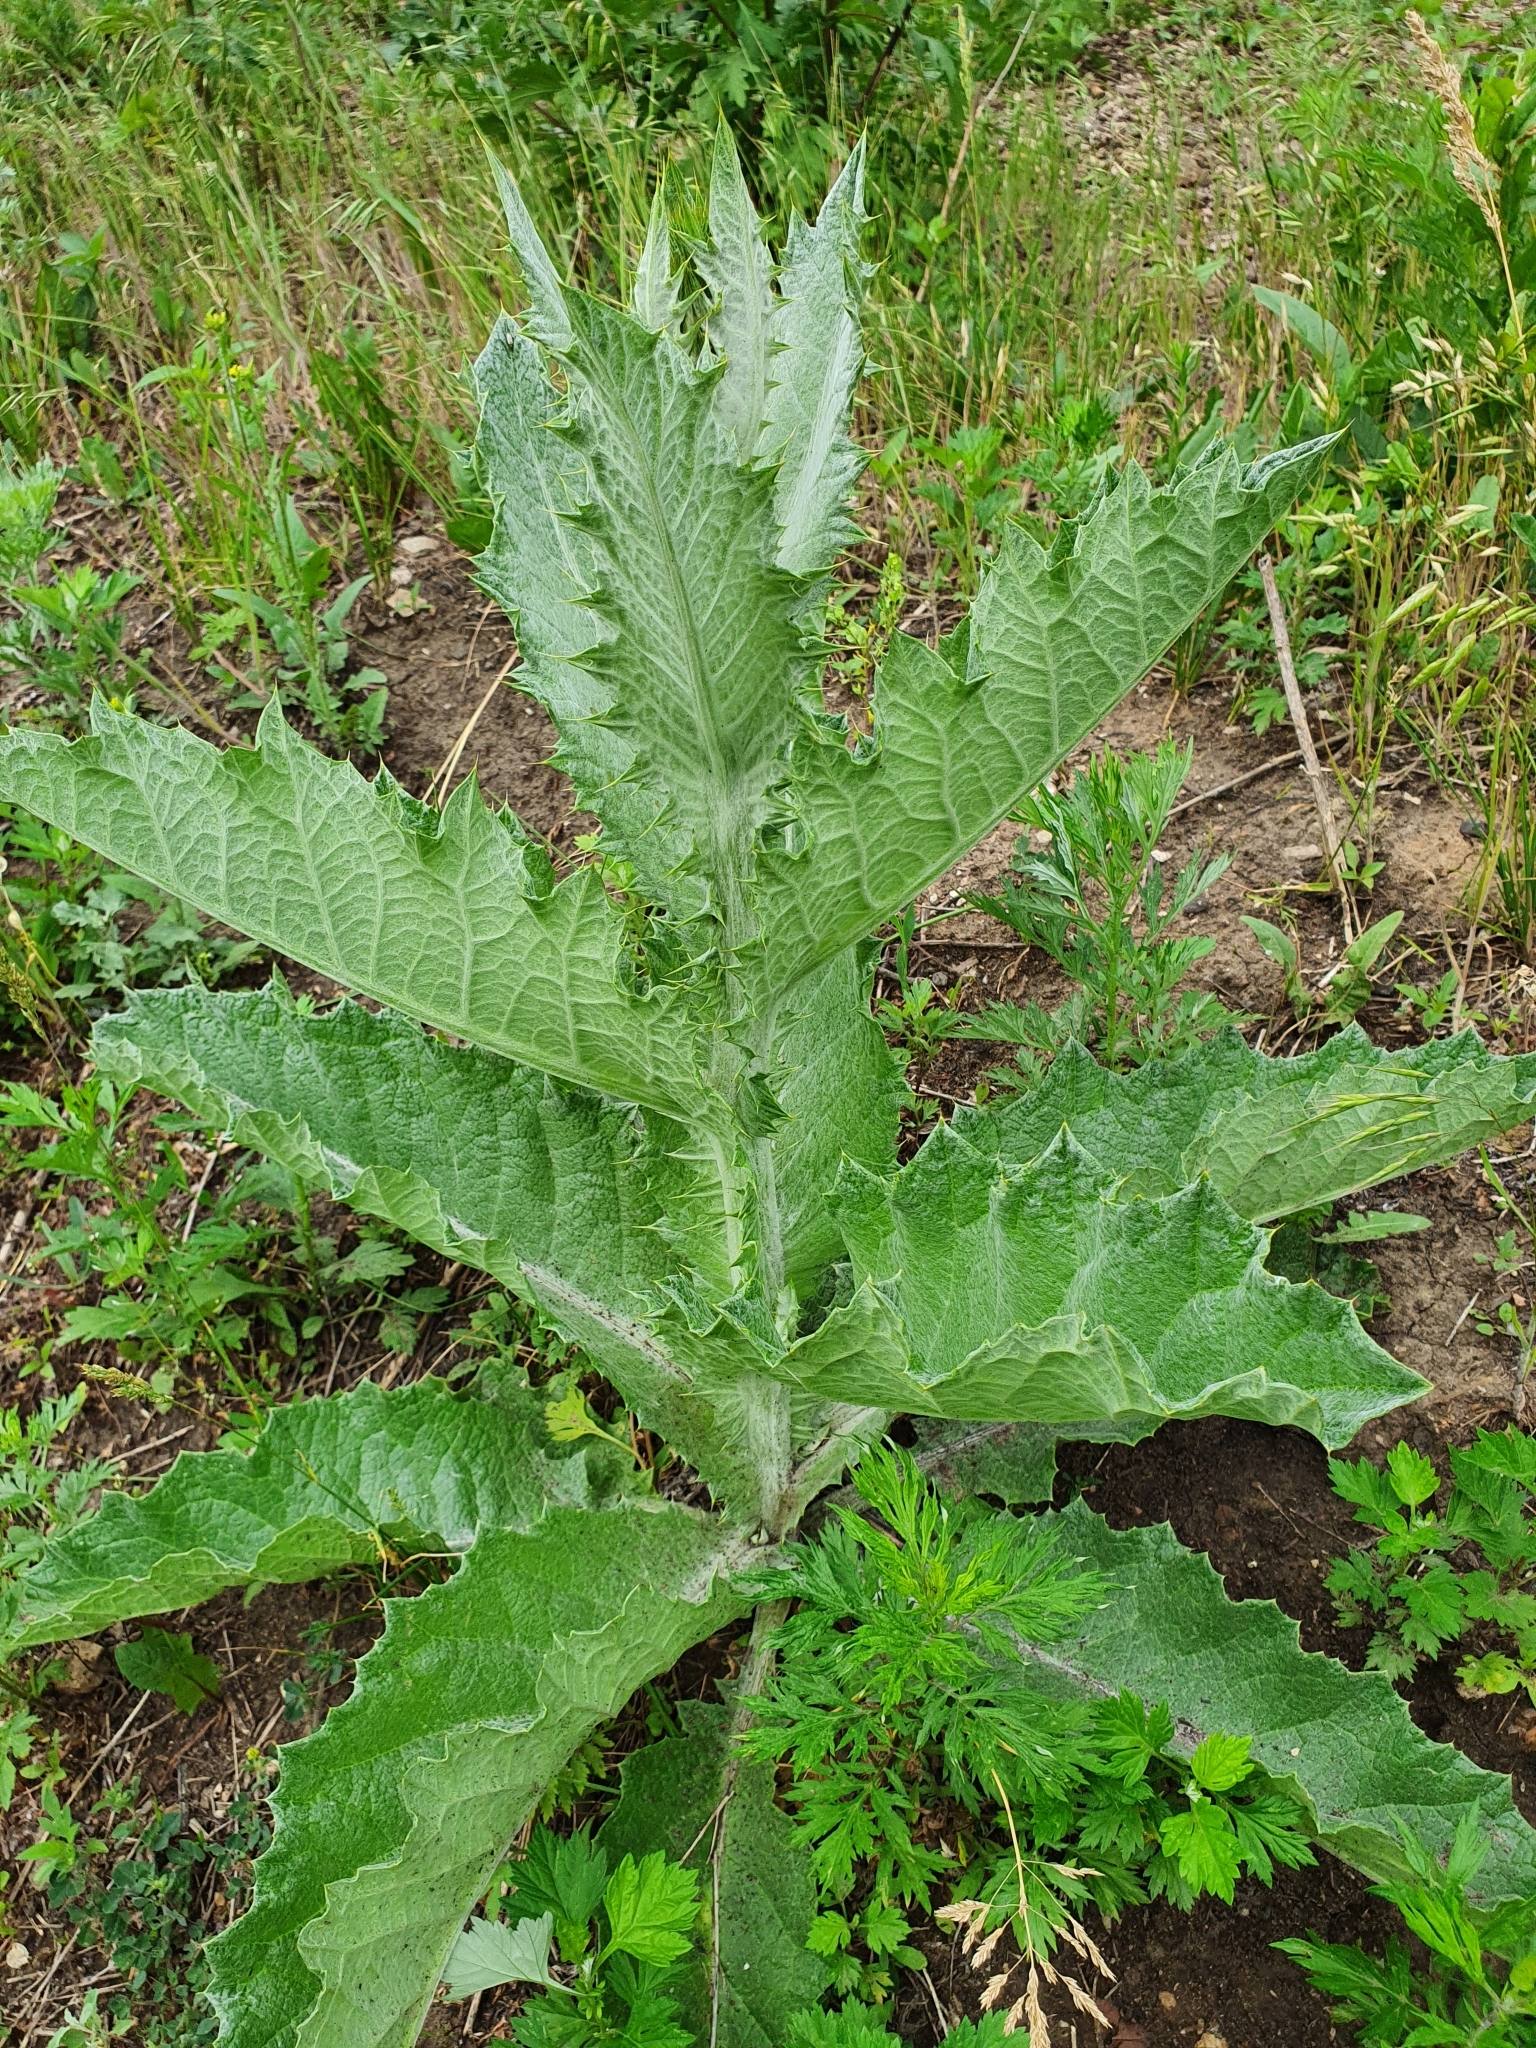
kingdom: Plantae
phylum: Tracheophyta
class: Magnoliopsida
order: Asterales
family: Asteraceae
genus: Onopordum
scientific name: Onopordum acanthium
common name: Scotch thistle
